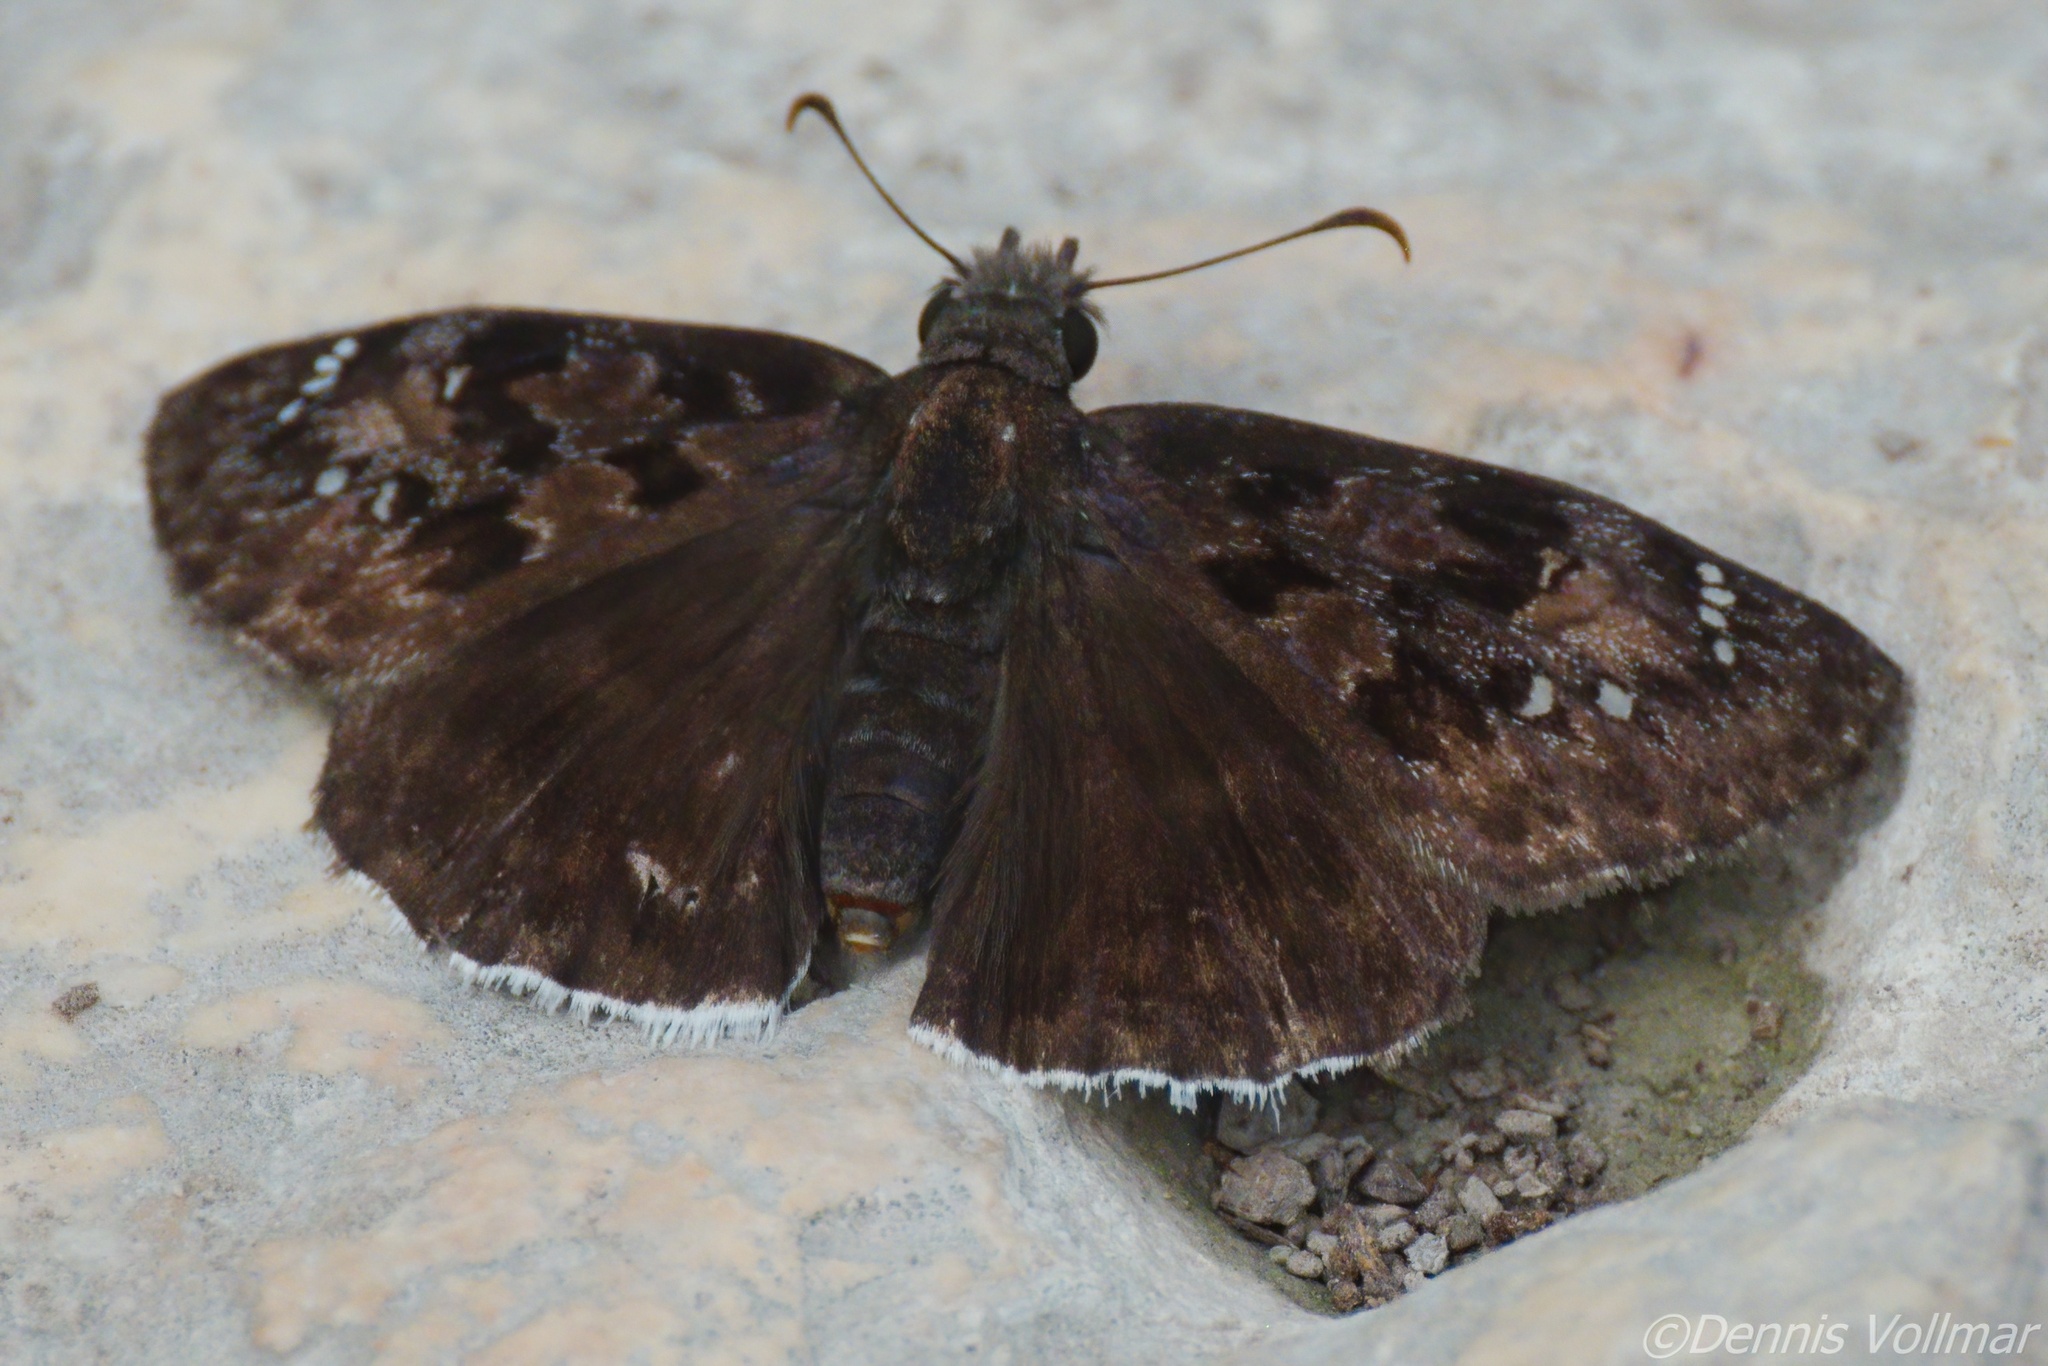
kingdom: Animalia
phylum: Arthropoda
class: Insecta
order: Lepidoptera
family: Hesperiidae
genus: Erynnis
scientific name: Erynnis tristis
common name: Mournful duskywing
